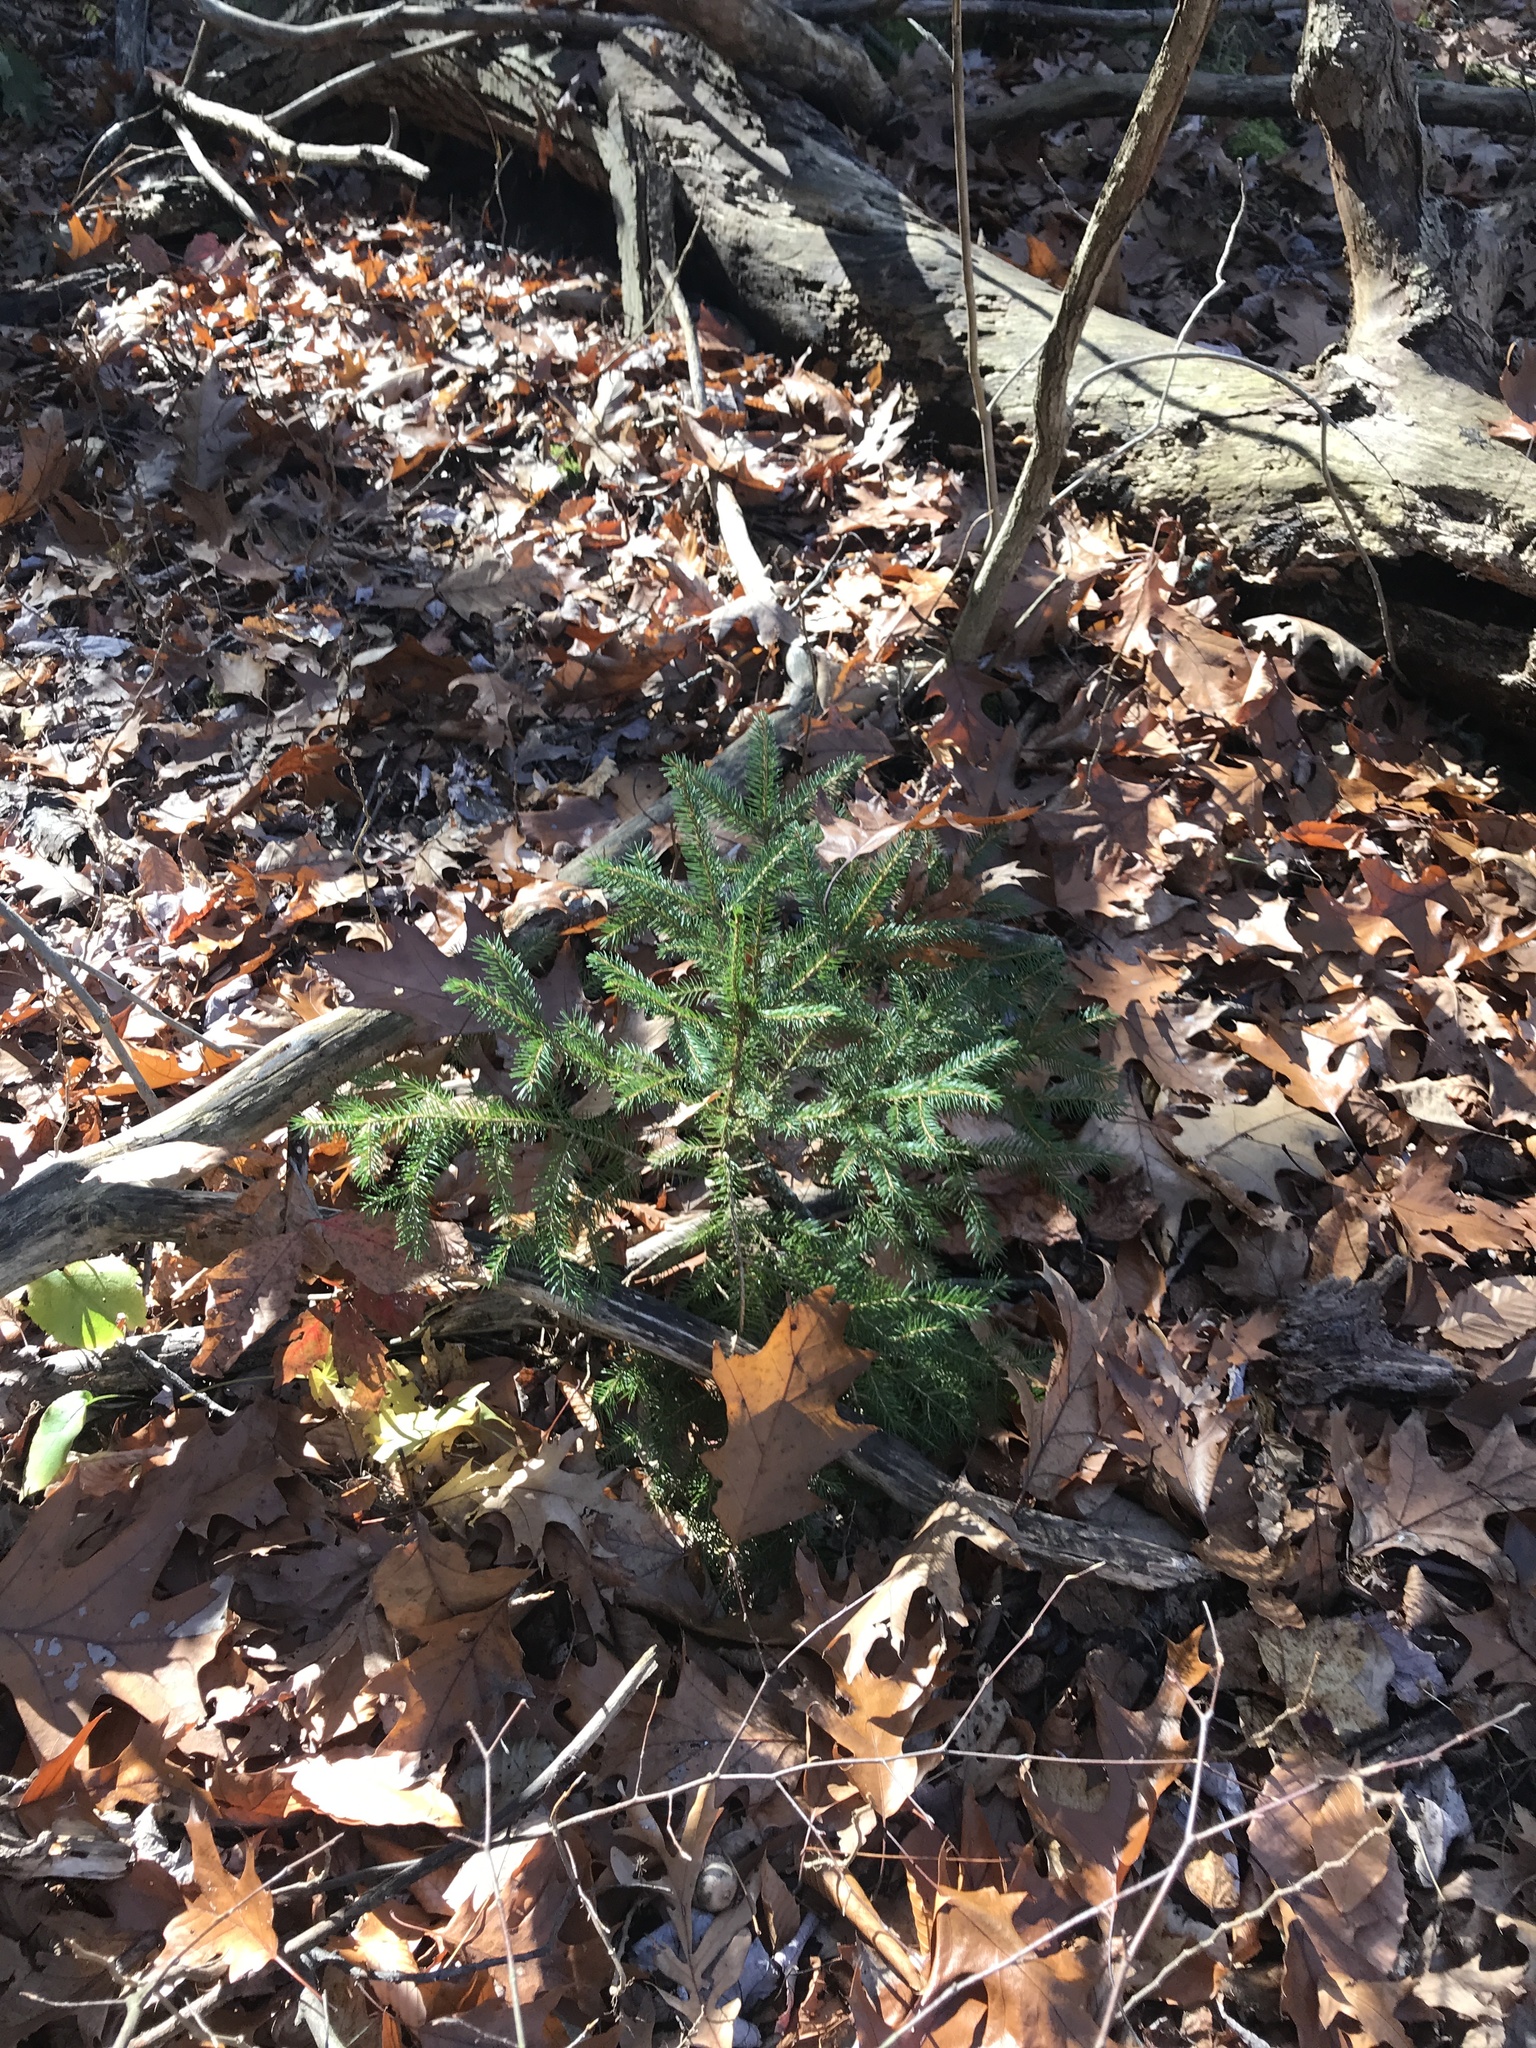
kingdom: Plantae
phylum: Tracheophyta
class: Pinopsida
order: Pinales
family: Pinaceae
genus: Picea
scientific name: Picea abies
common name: Norway spruce
